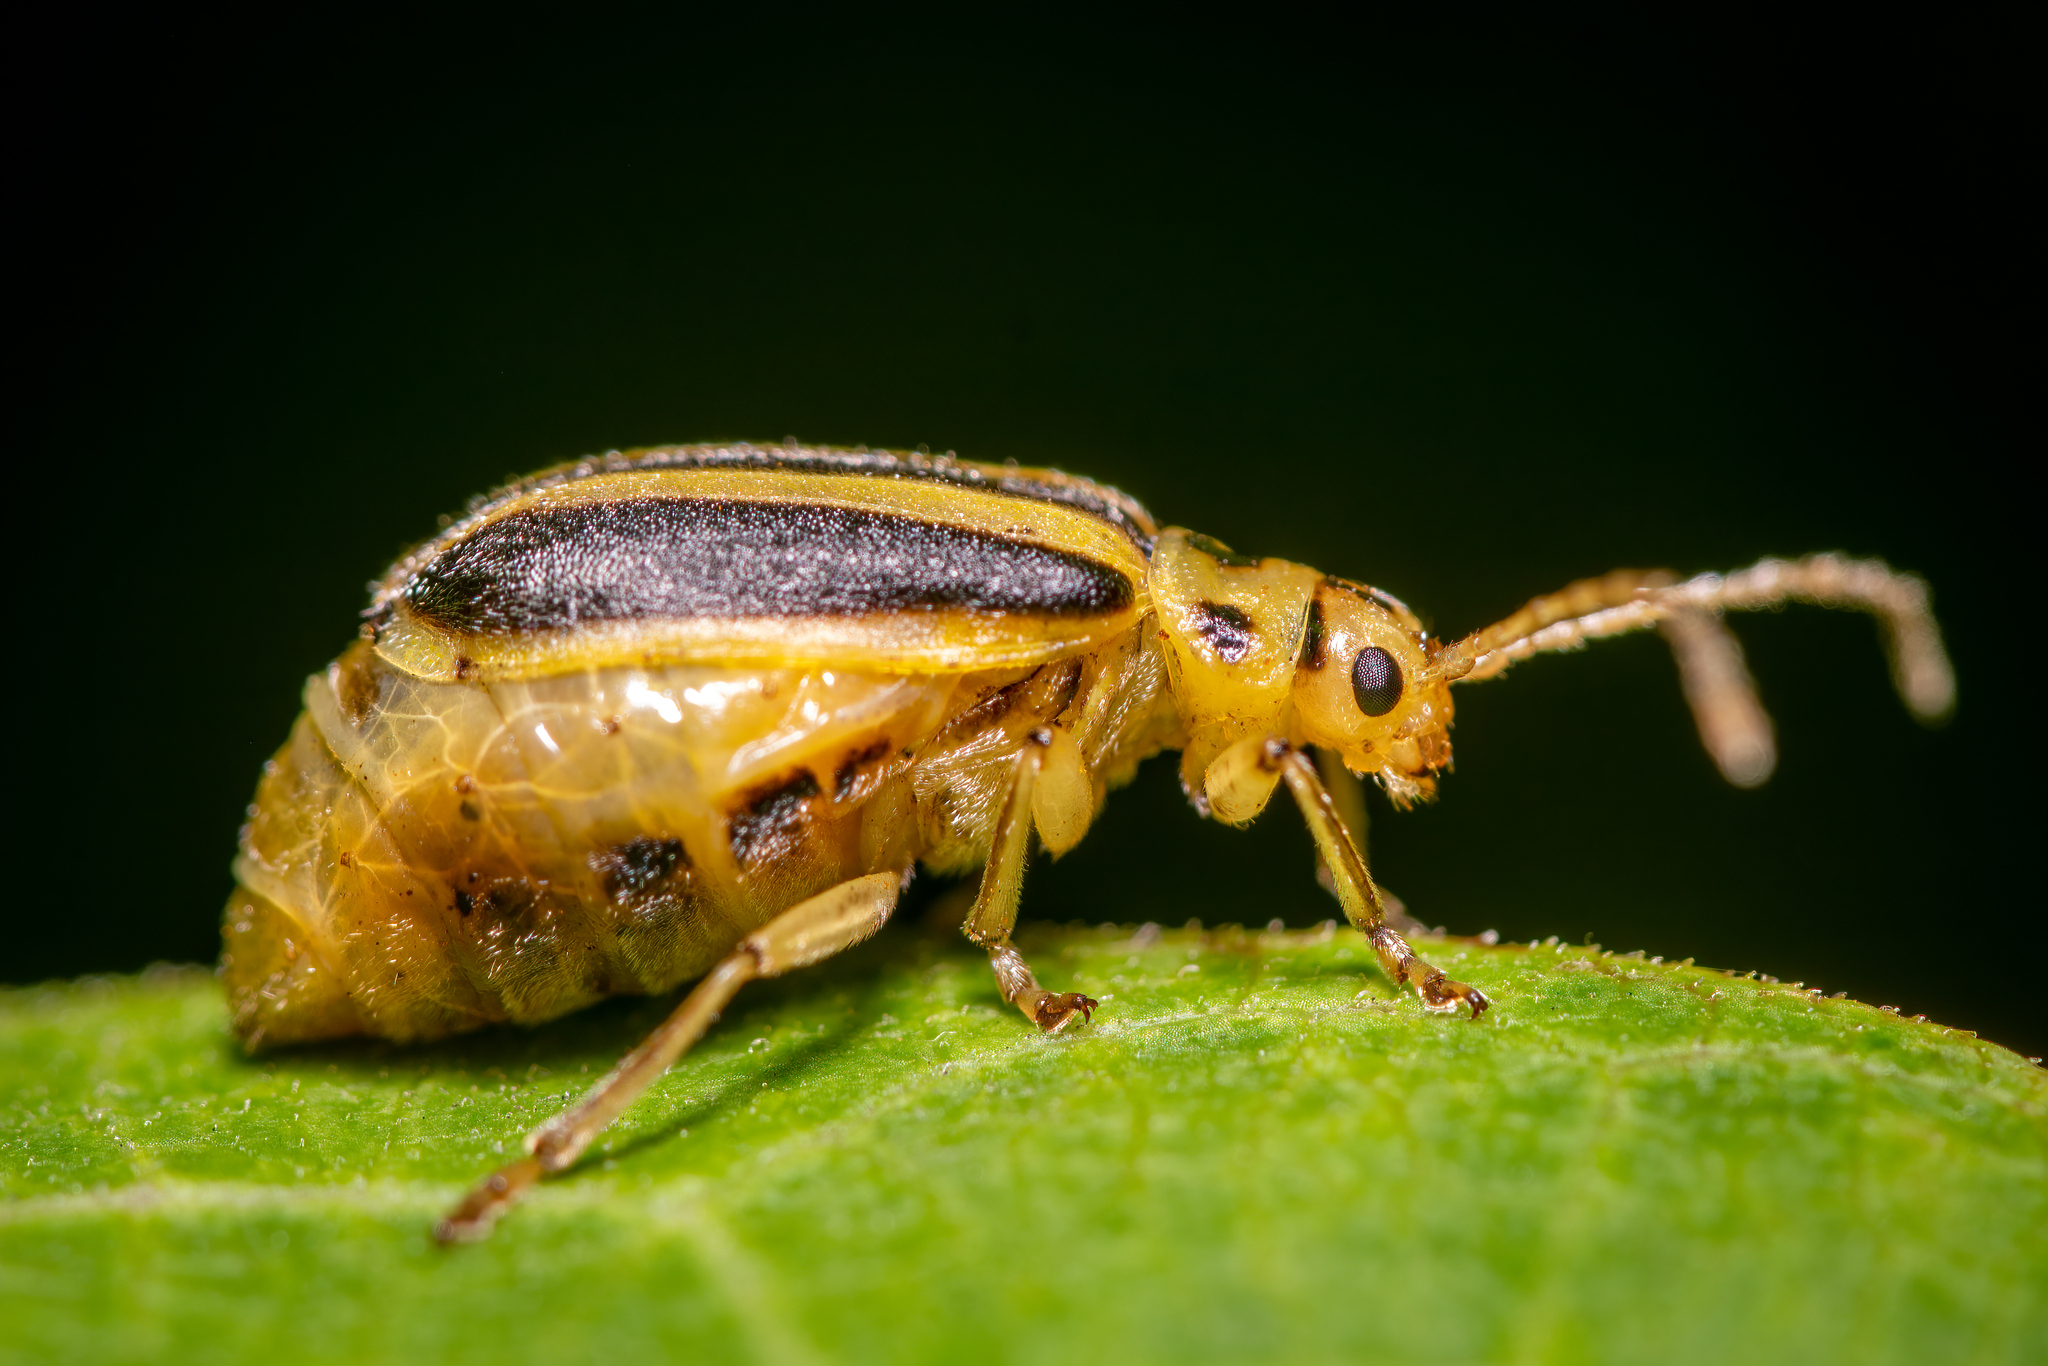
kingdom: Animalia
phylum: Arthropoda
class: Insecta
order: Coleoptera
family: Chrysomelidae
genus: Trirhabda
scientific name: Trirhabda canadensis
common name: Goldenrod leaf beetle
